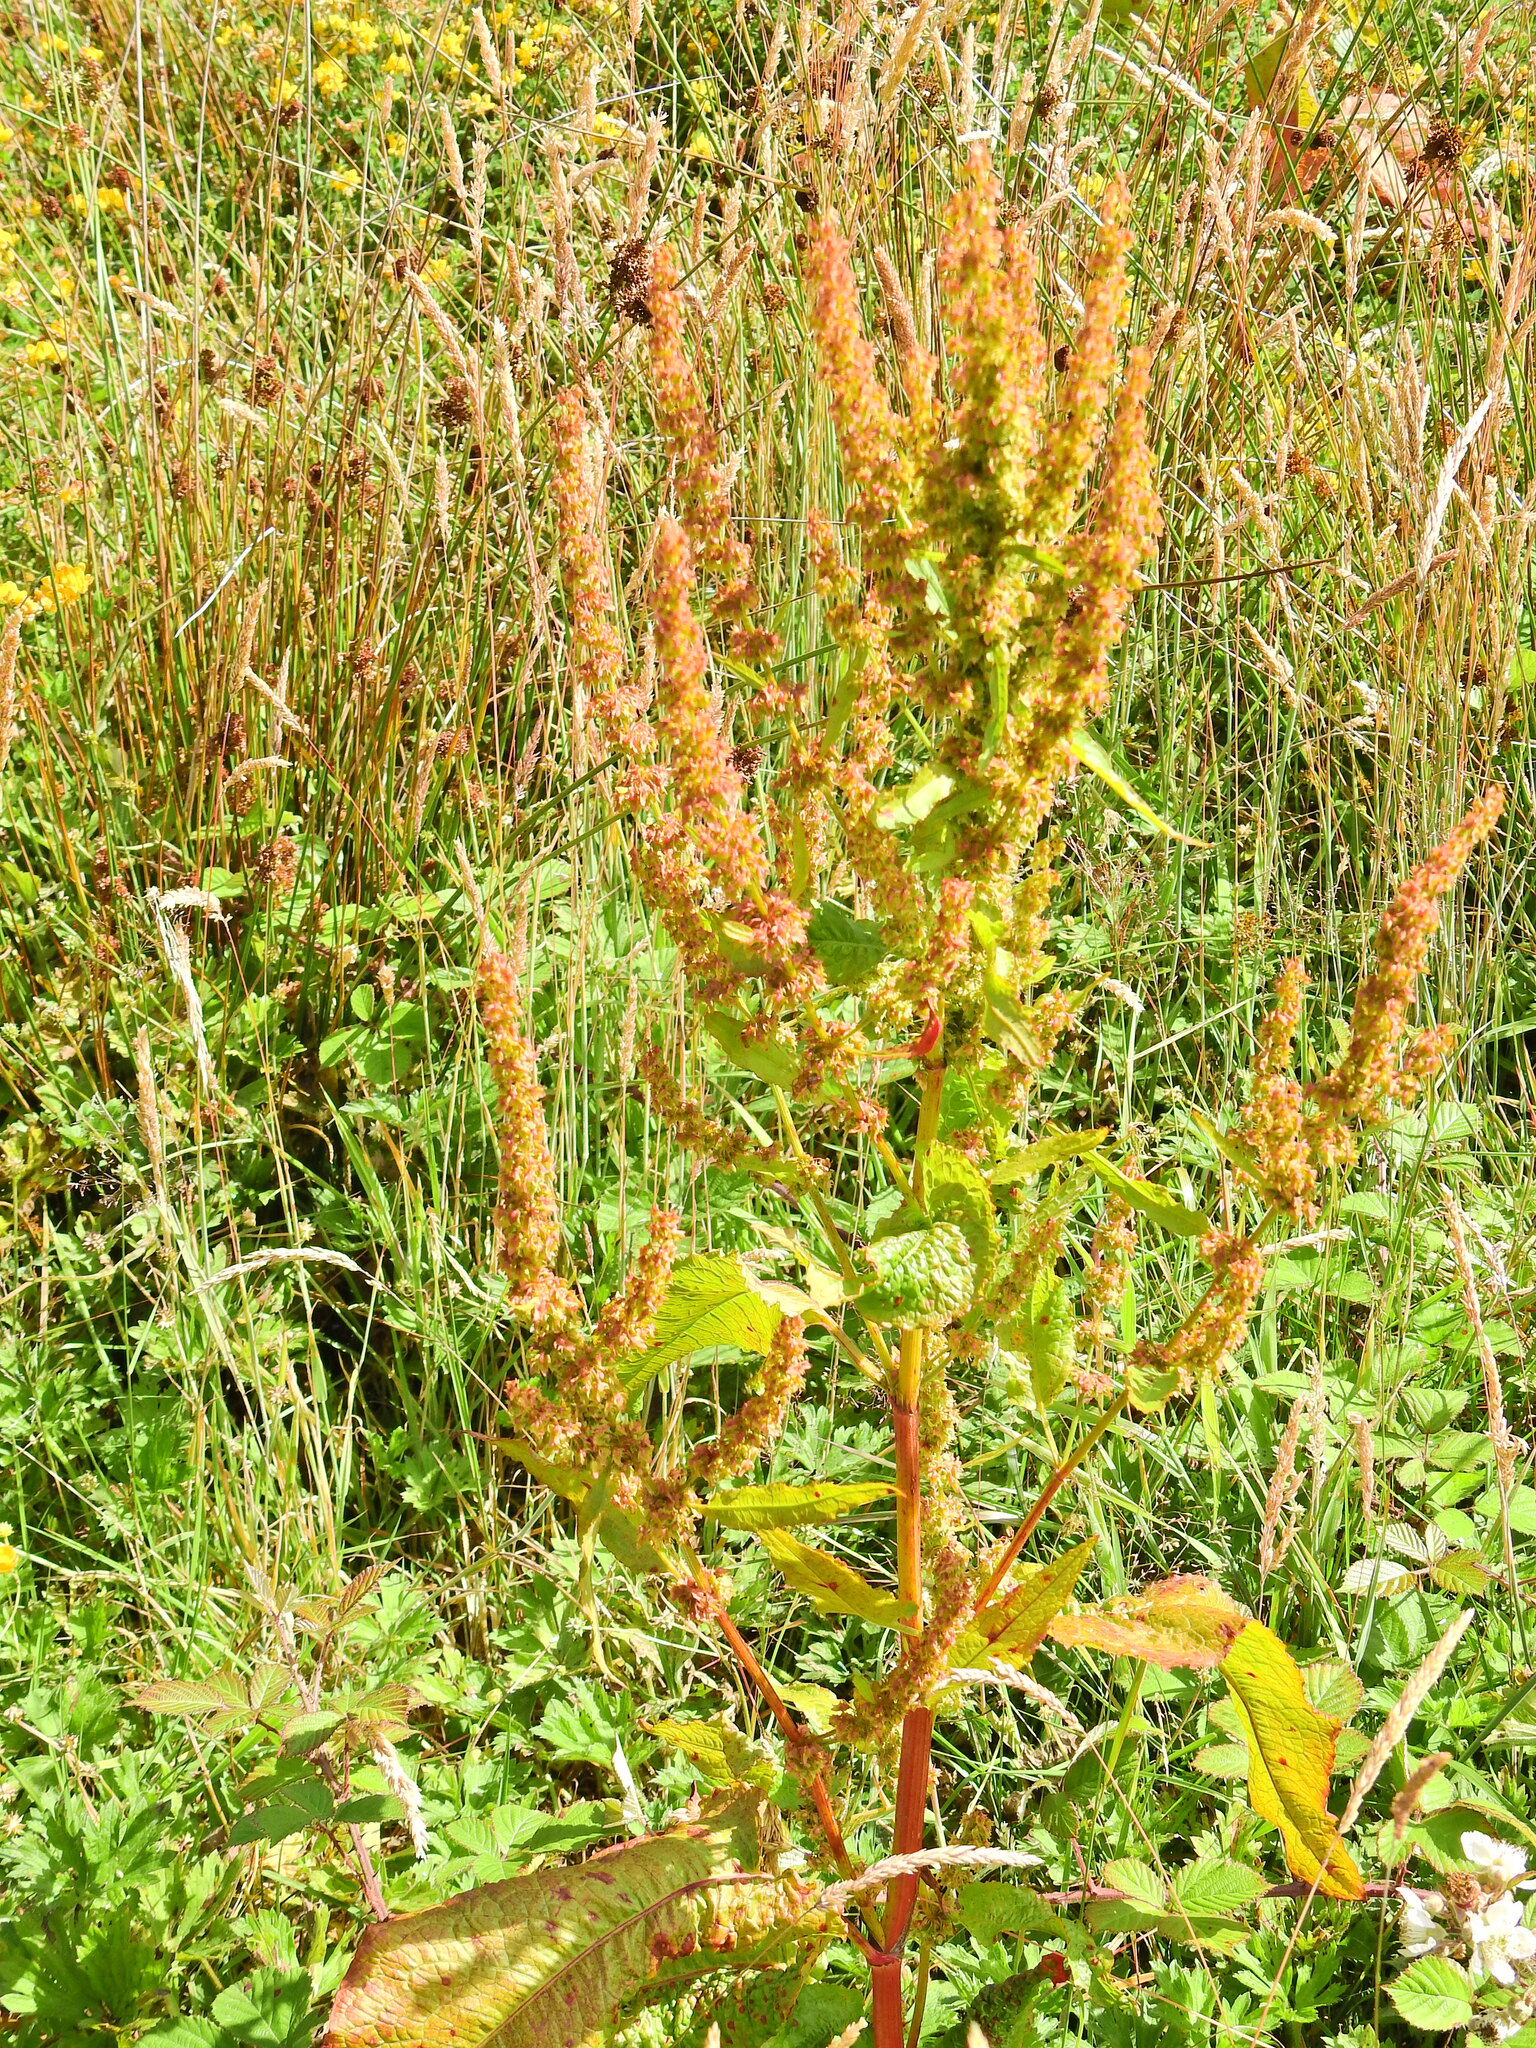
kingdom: Plantae
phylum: Tracheophyta
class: Magnoliopsida
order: Caryophyllales
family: Polygonaceae
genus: Rumex
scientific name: Rumex obtusifolius
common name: Bitter dock
